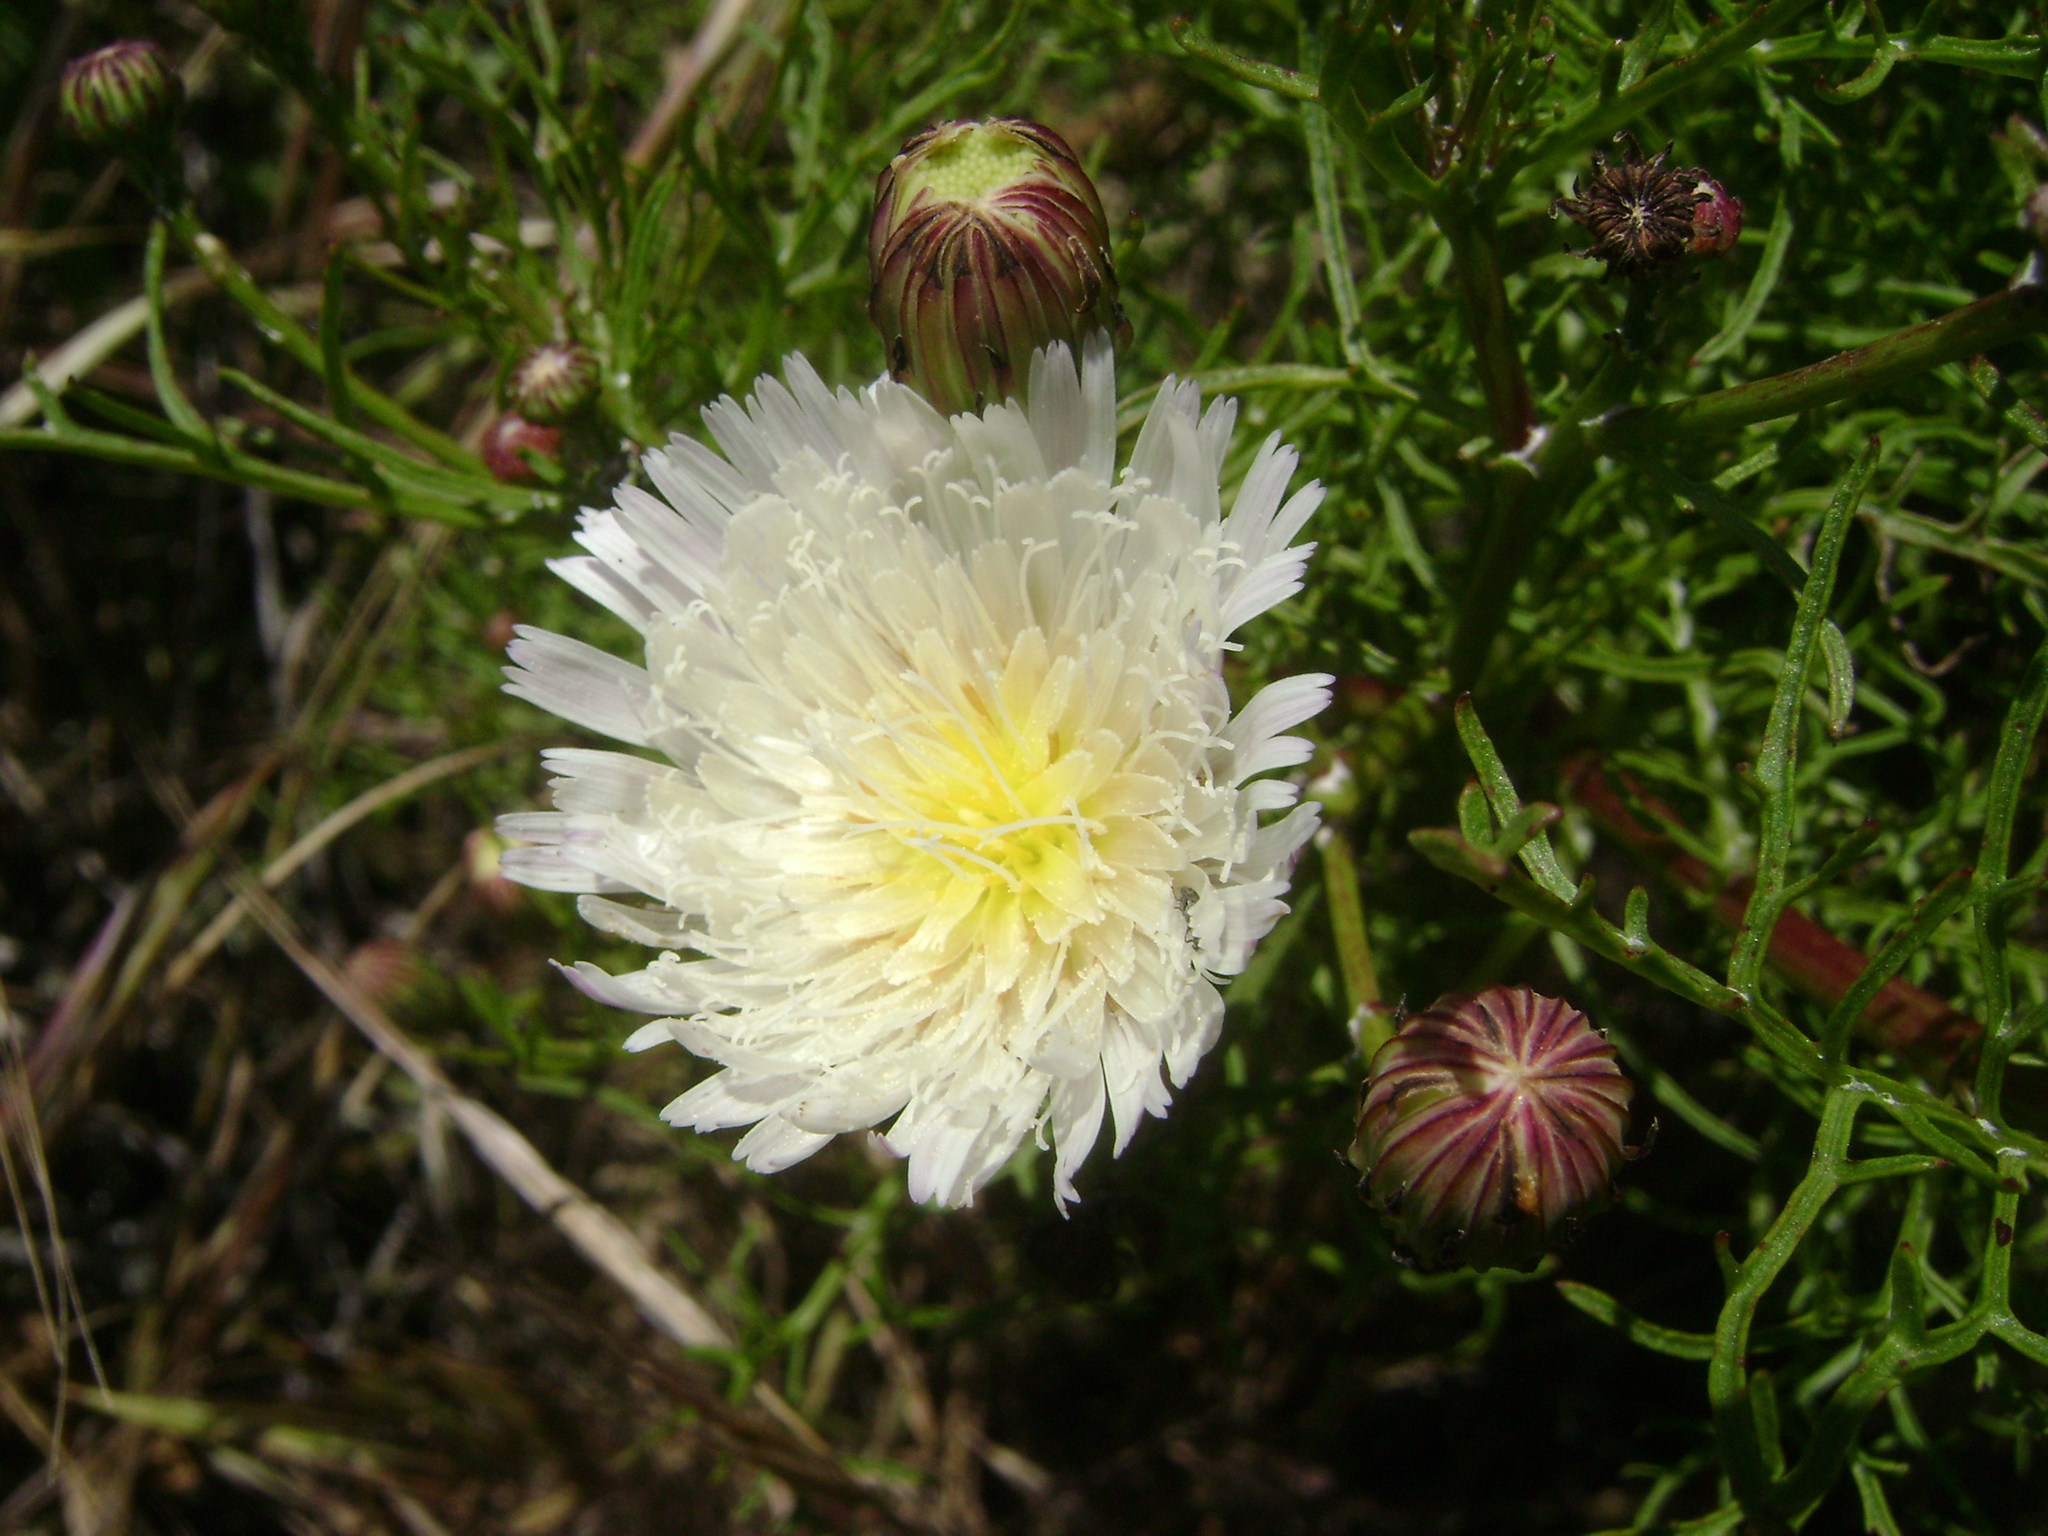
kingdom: Plantae
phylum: Tracheophyta
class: Magnoliopsida
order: Asterales
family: Asteraceae
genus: Malacothrix
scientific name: Malacothrix saxatilis
